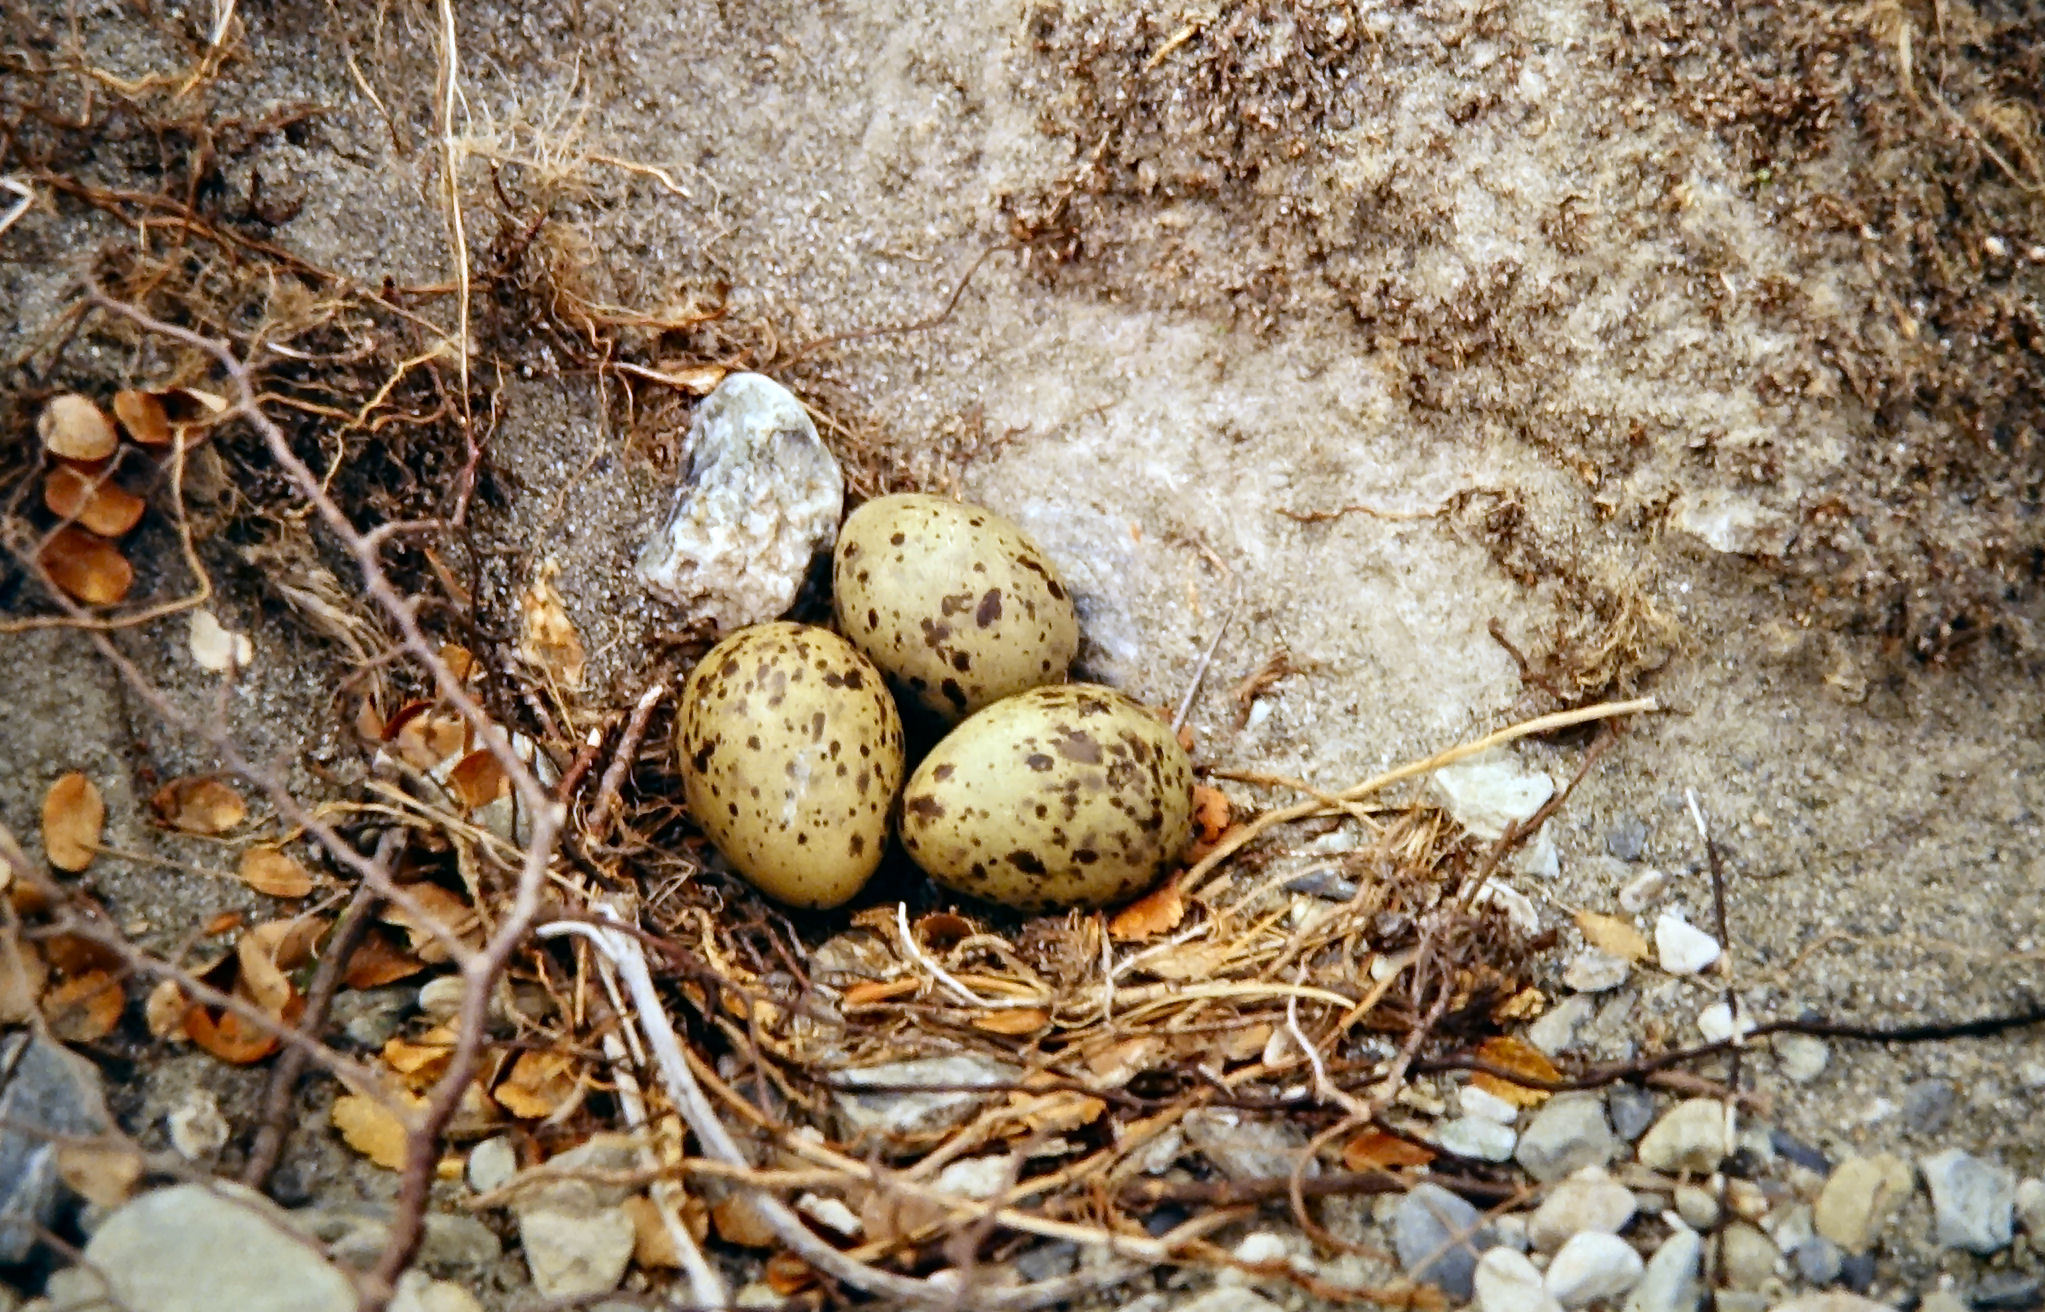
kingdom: Animalia
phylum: Chordata
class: Aves
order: Charadriiformes
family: Laridae
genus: Chlidonias
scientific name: Chlidonias albostriatus
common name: Black-fronted tern
